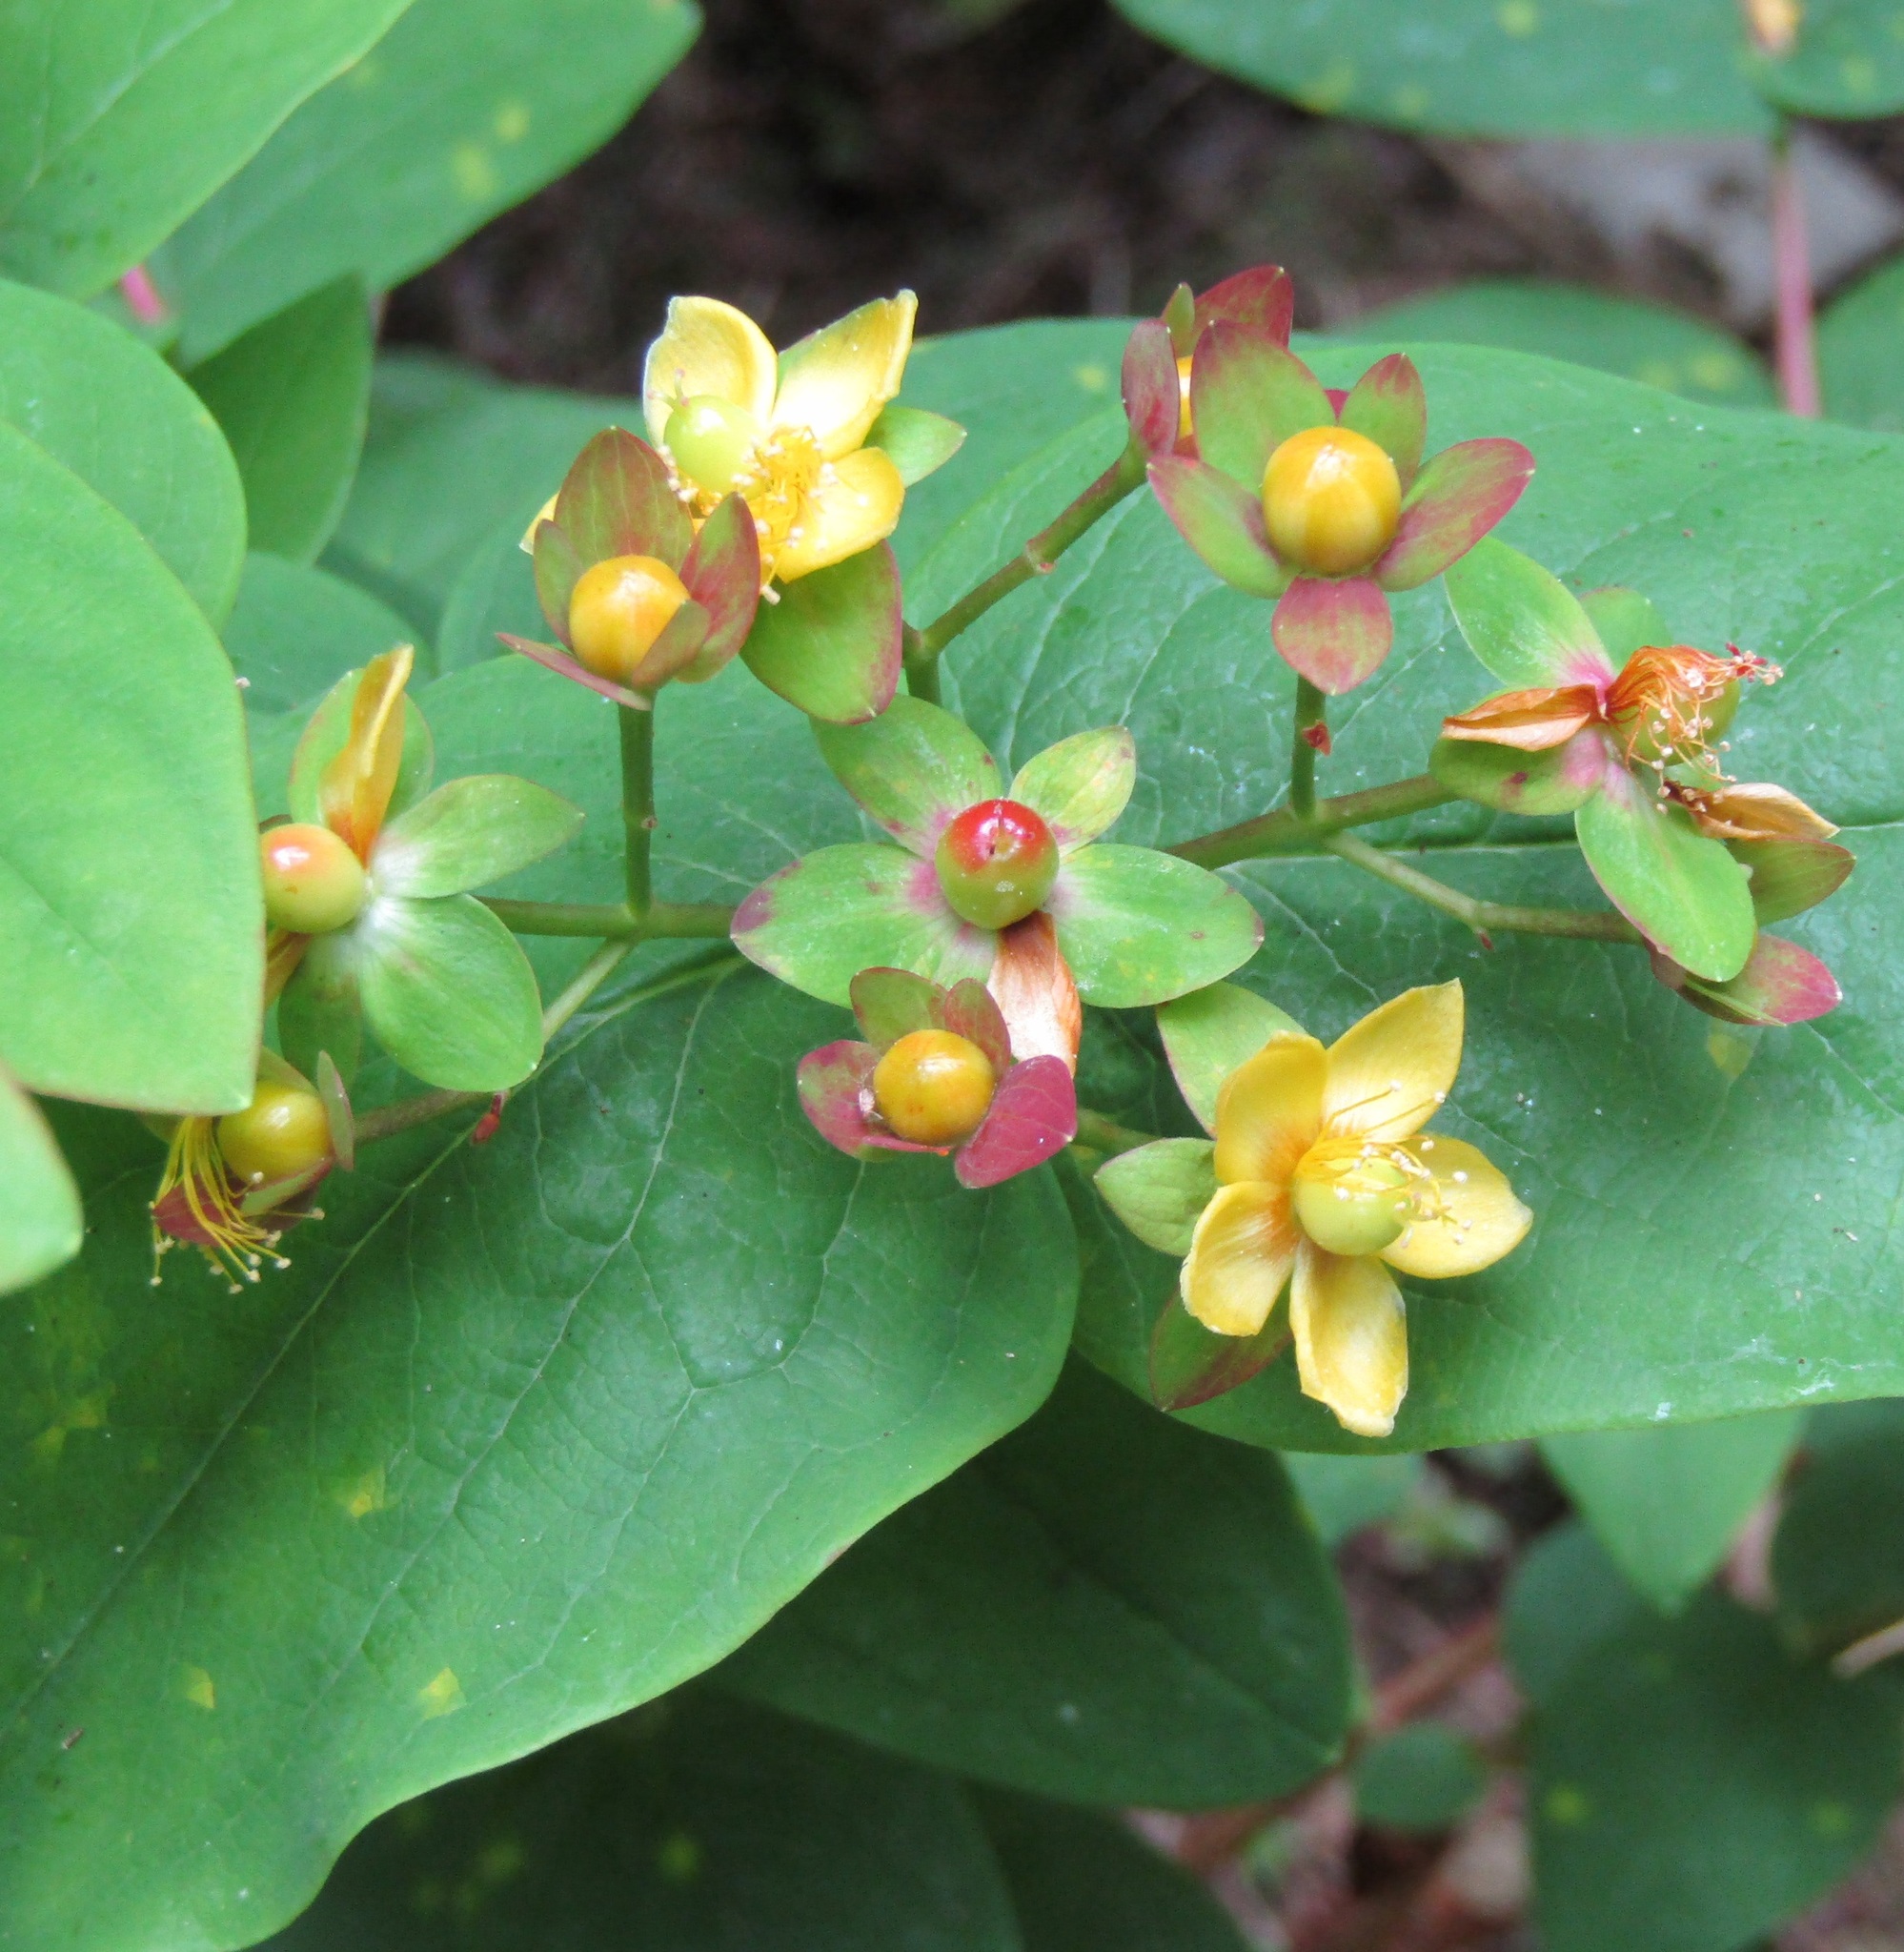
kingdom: Plantae
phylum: Tracheophyta
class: Magnoliopsida
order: Malpighiales
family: Hypericaceae
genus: Hypericum
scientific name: Hypericum androsaemum
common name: Sweet-amber
